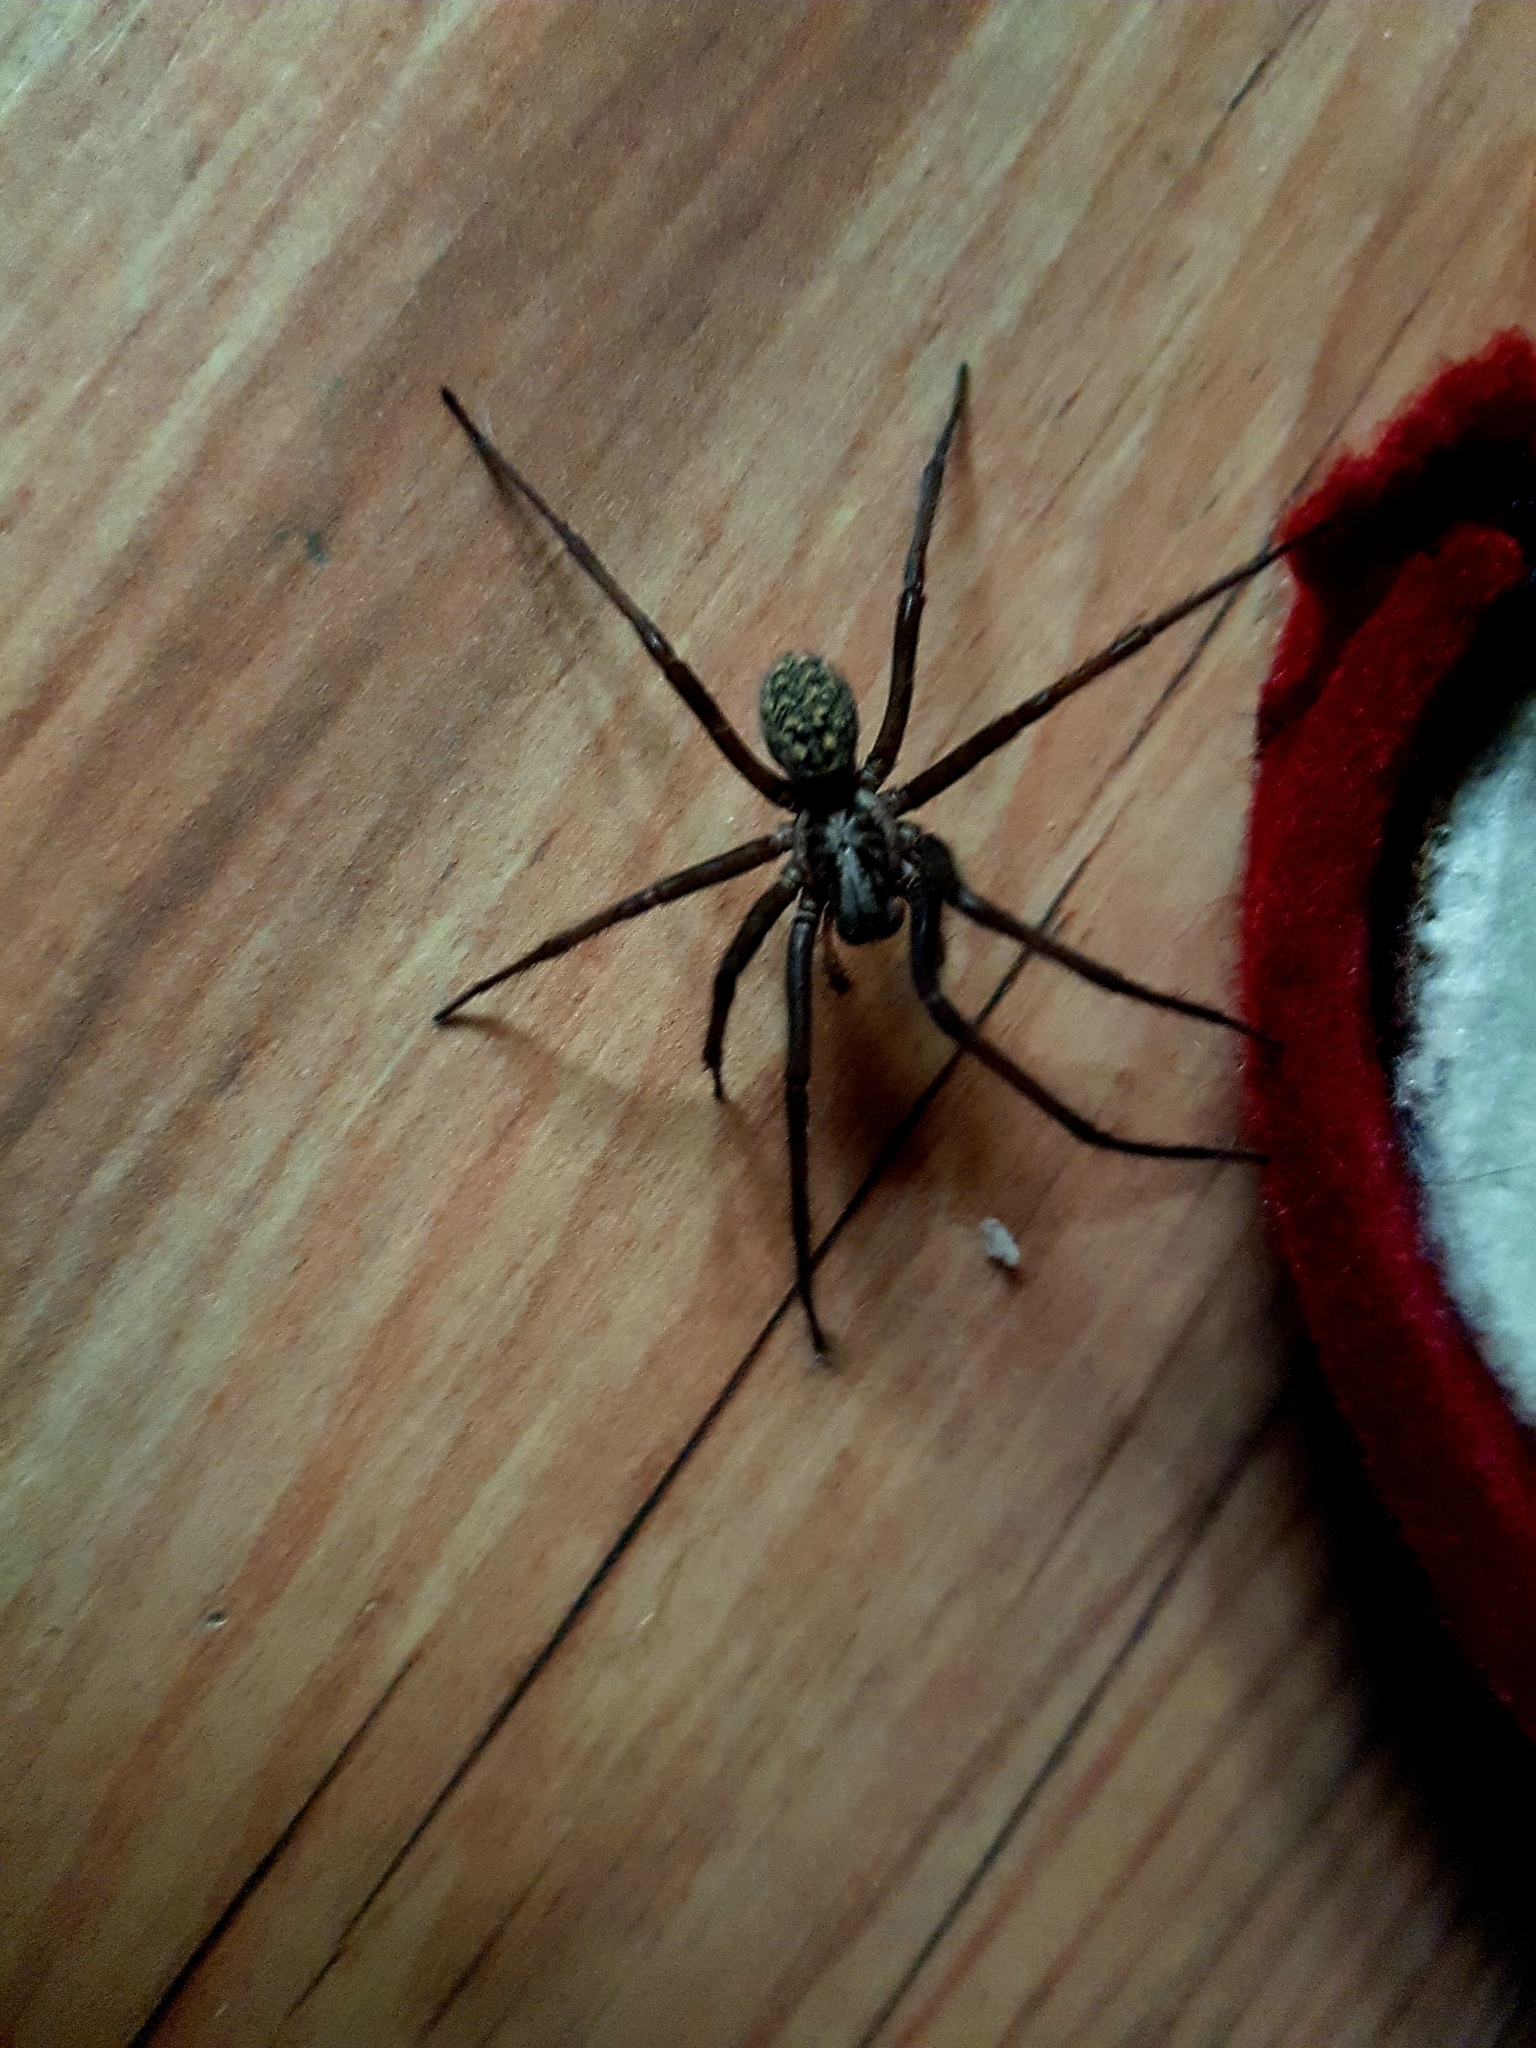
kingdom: Animalia
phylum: Arthropoda
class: Arachnida
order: Araneae
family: Agelenidae
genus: Eratigena
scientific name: Eratigena atrica
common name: Giant house spider
